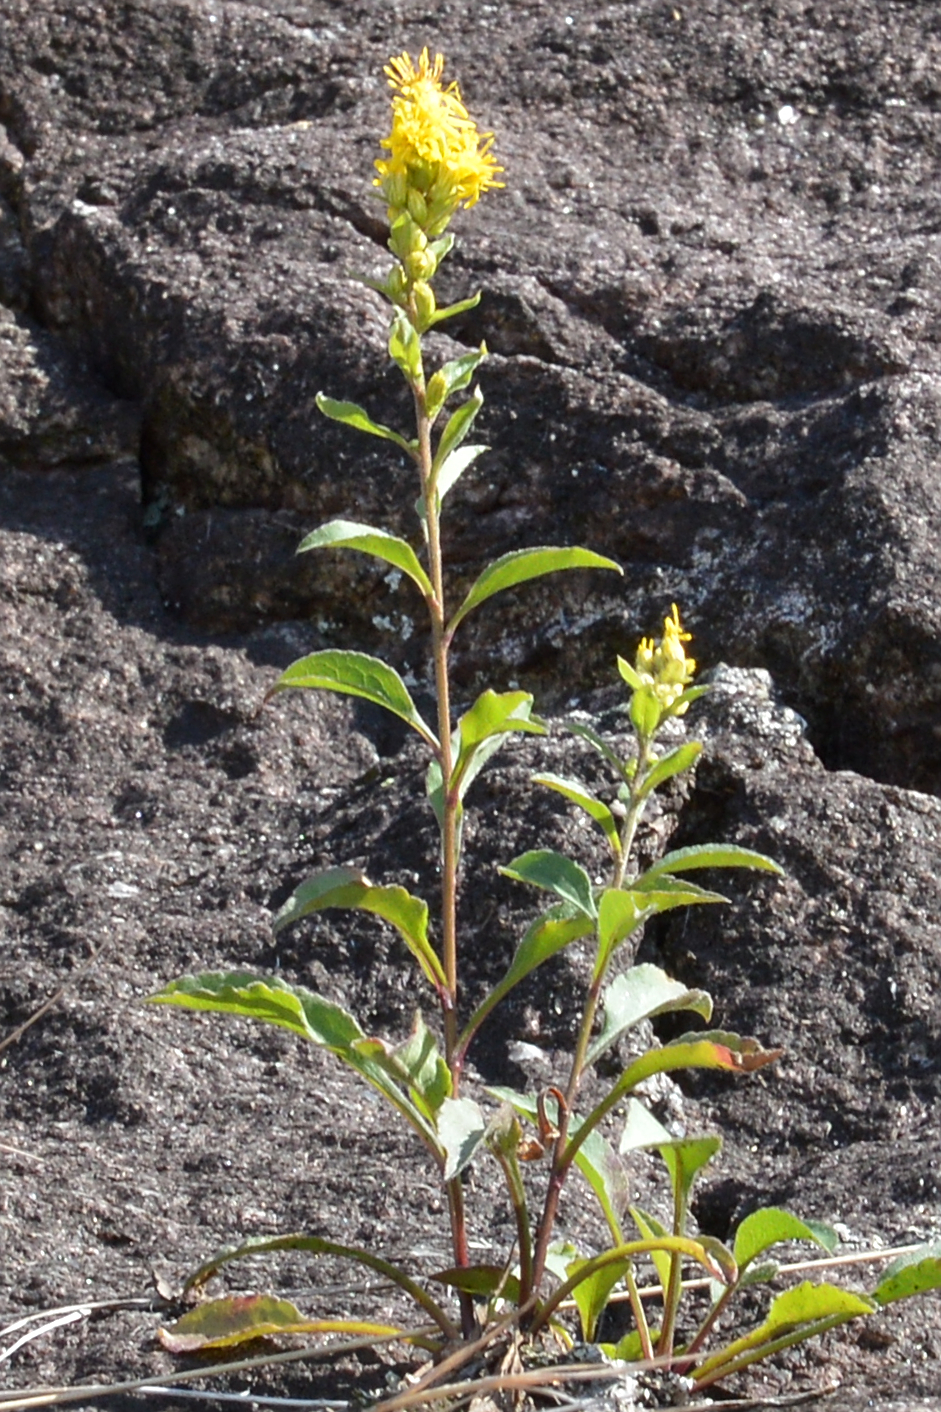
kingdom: Plantae
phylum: Tracheophyta
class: Magnoliopsida
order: Asterales
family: Asteraceae
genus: Solidago
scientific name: Solidago virgaurea
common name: Goldenrod
